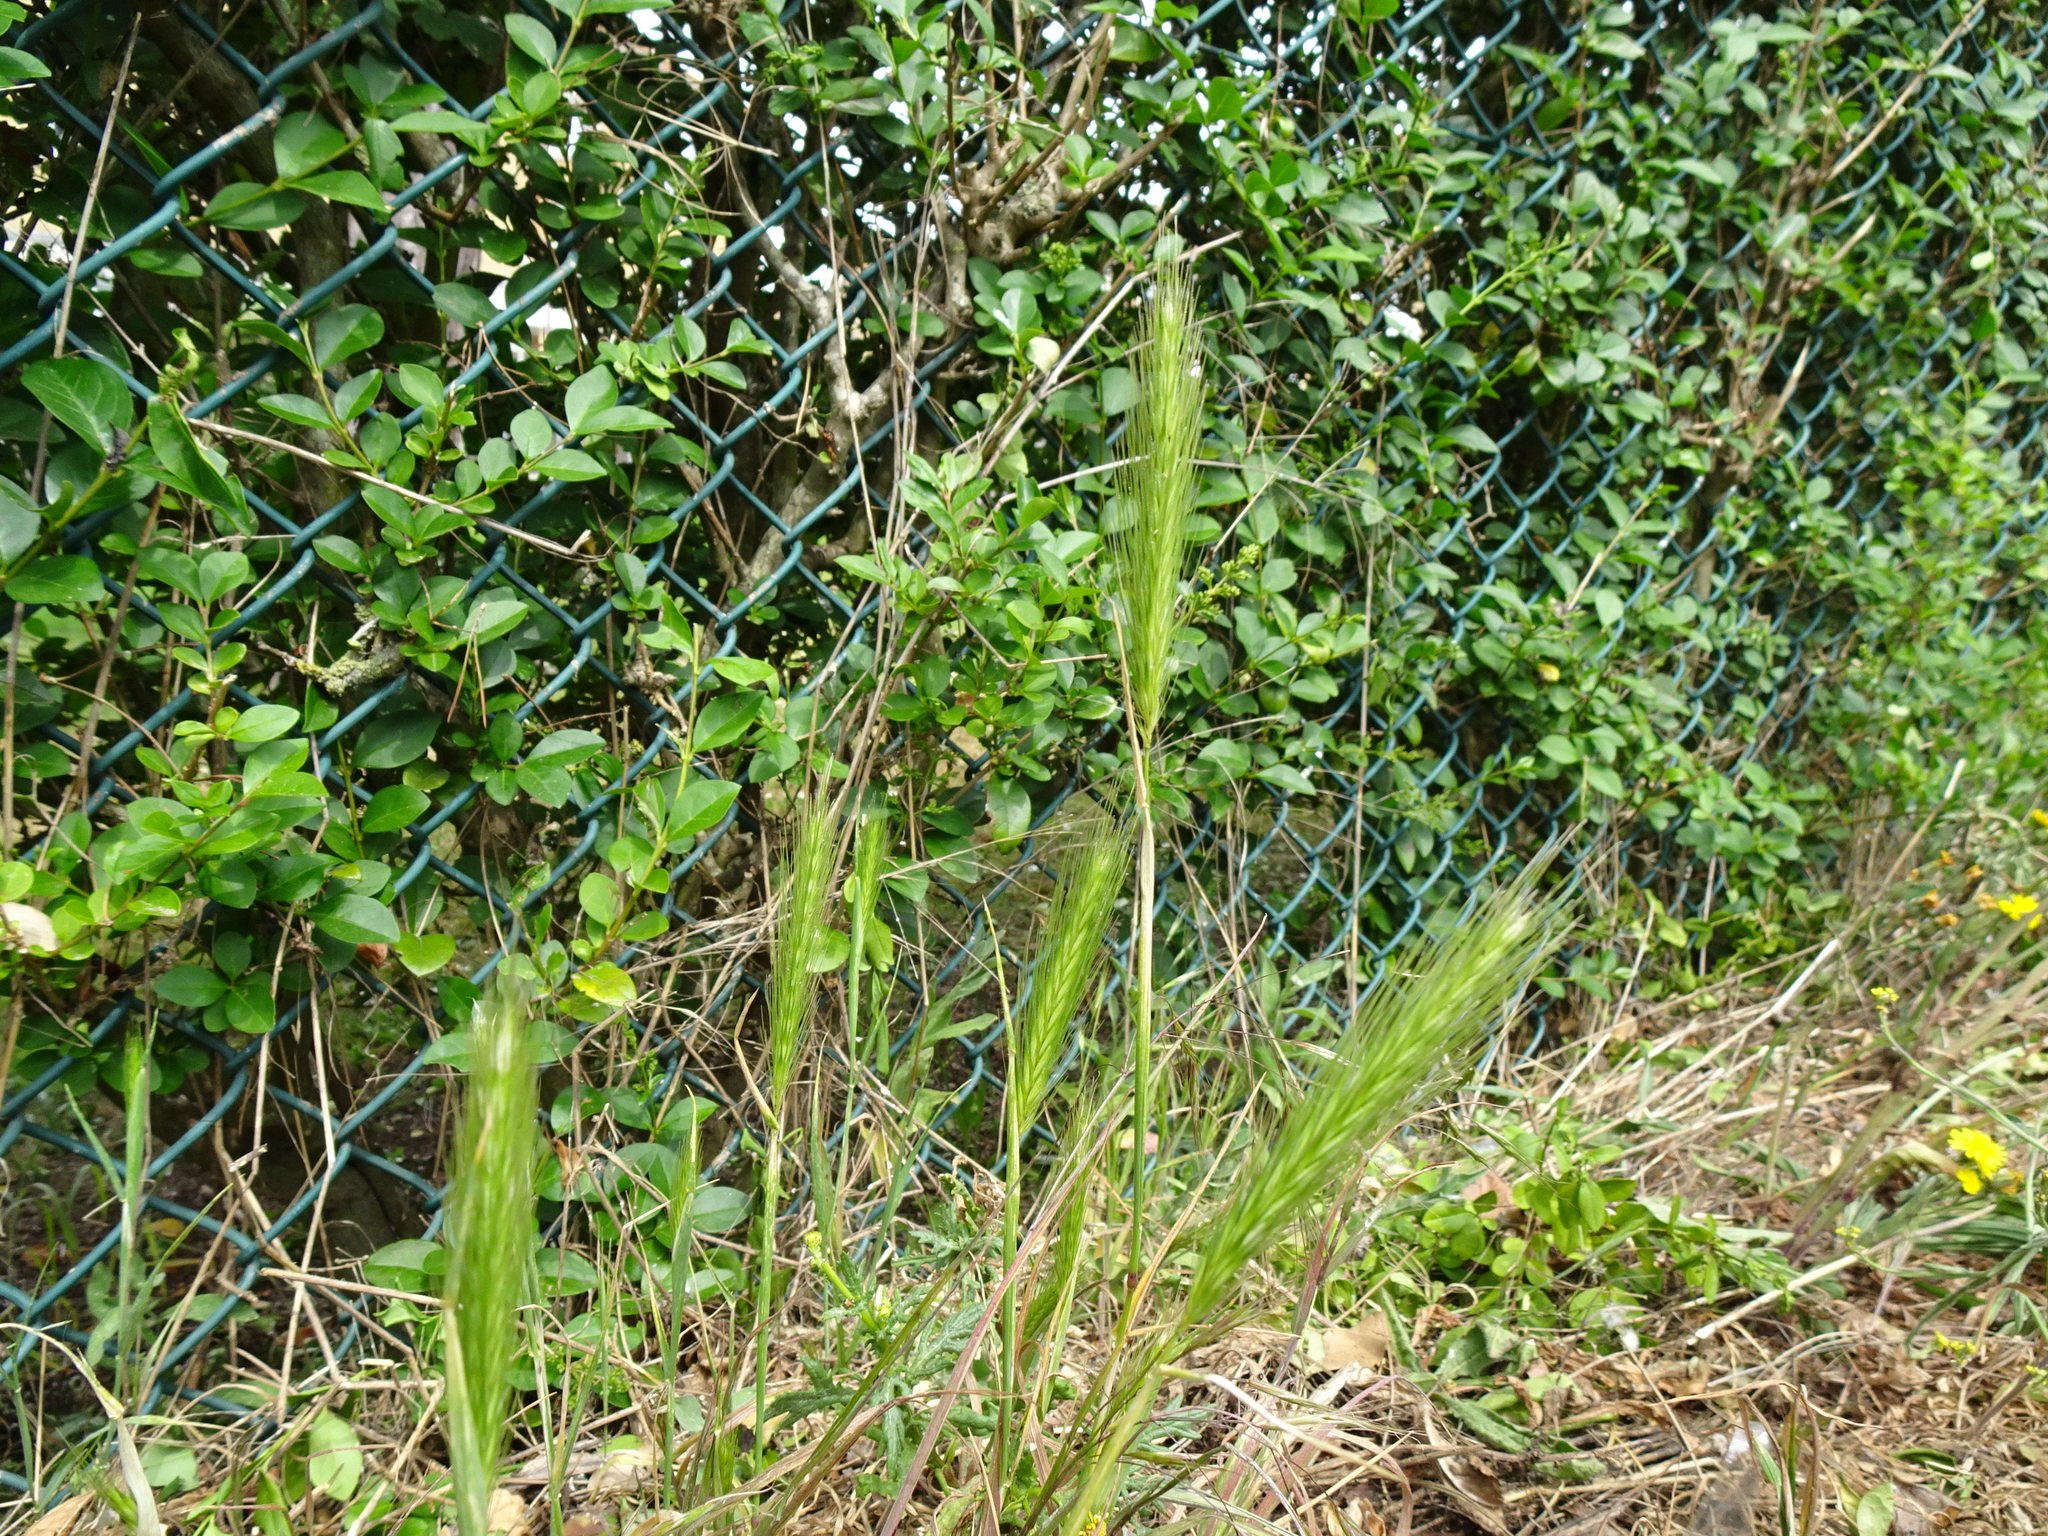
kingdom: Plantae
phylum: Tracheophyta
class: Liliopsida
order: Poales
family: Poaceae
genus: Hordeum
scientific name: Hordeum murinum
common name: Wall barley
